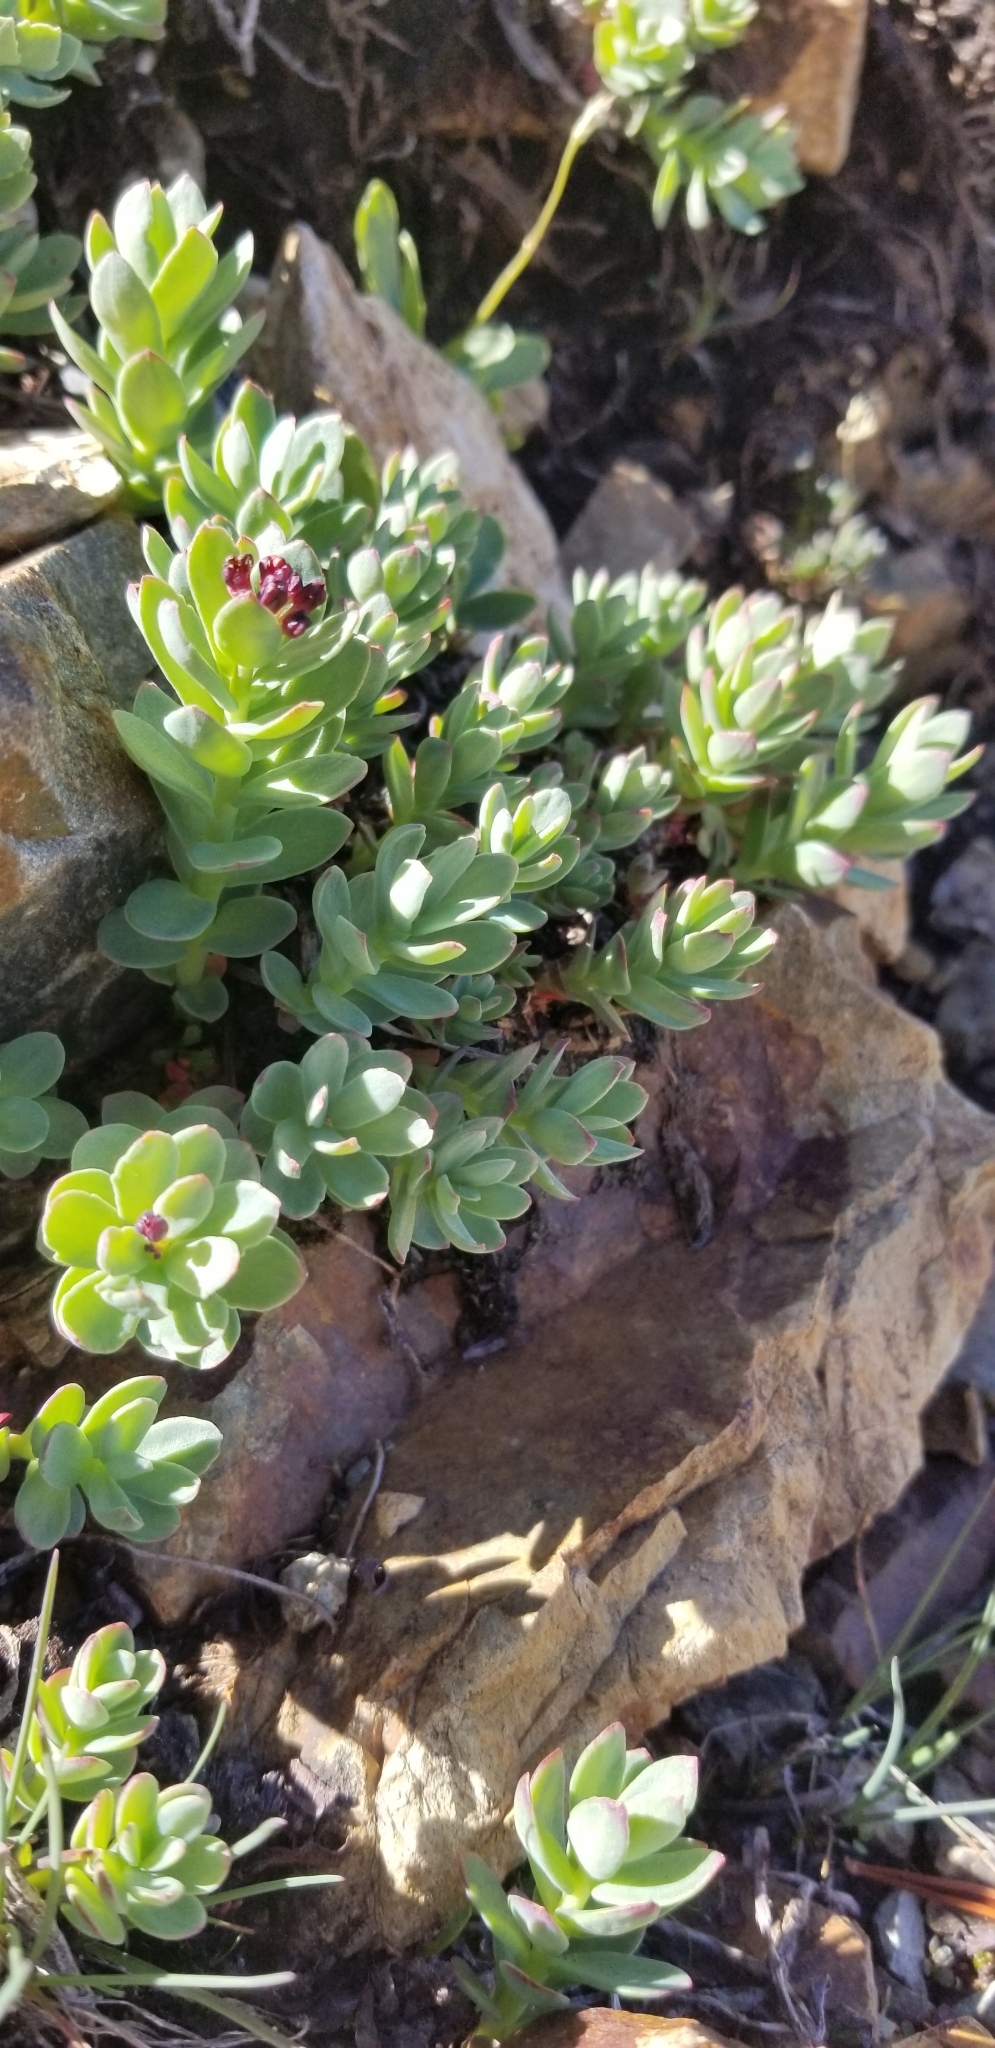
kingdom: Plantae
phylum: Tracheophyta
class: Magnoliopsida
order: Saxifragales
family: Crassulaceae
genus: Rhodiola
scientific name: Rhodiola integrifolia
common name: Western roseroot
